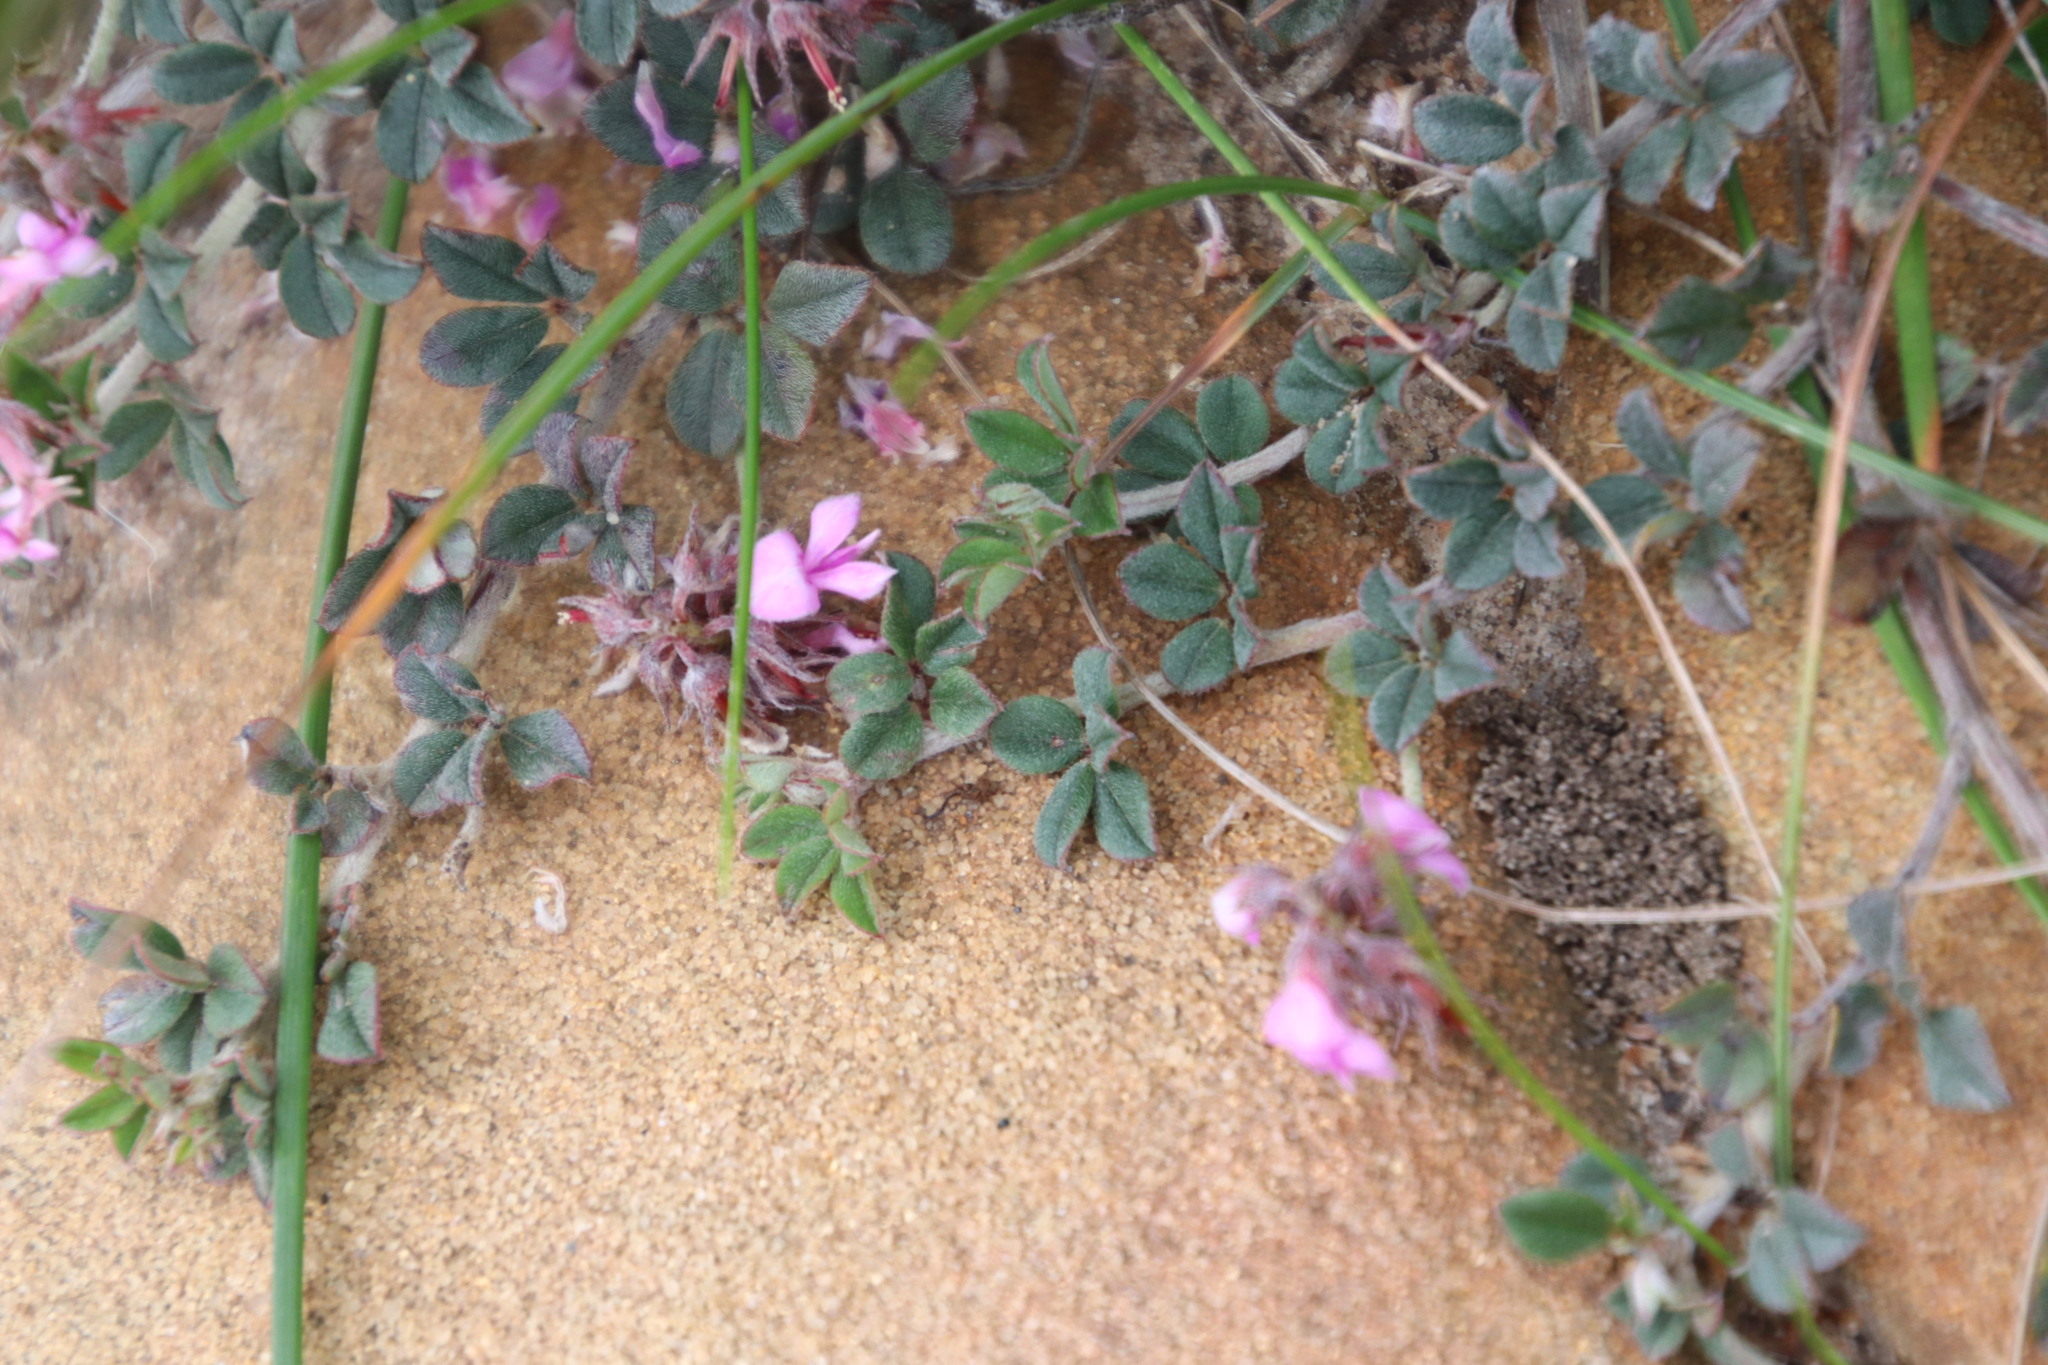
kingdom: Plantae
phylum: Tracheophyta
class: Magnoliopsida
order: Fabales
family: Fabaceae
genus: Indigofera
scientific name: Indigofera mauritanica
